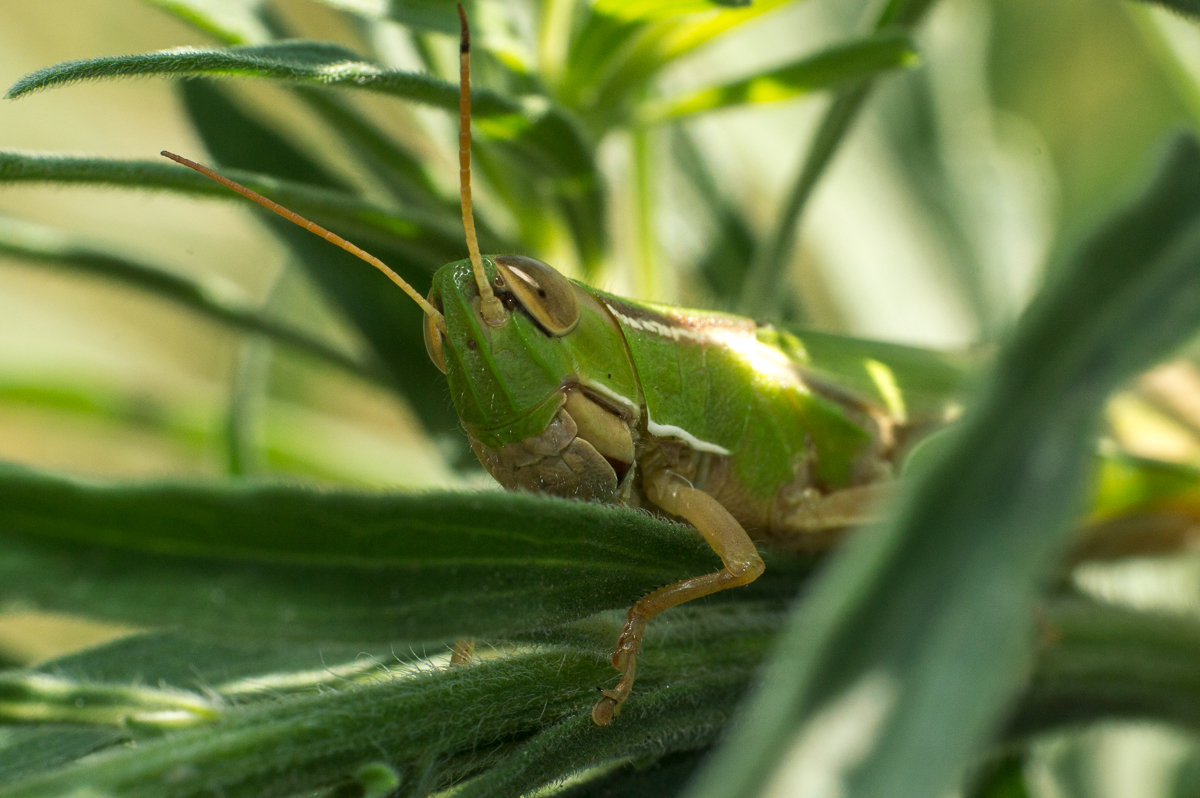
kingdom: Animalia
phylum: Arthropoda
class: Insecta
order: Orthoptera
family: Acrididae
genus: Aleuas
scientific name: Aleuas lineatus
